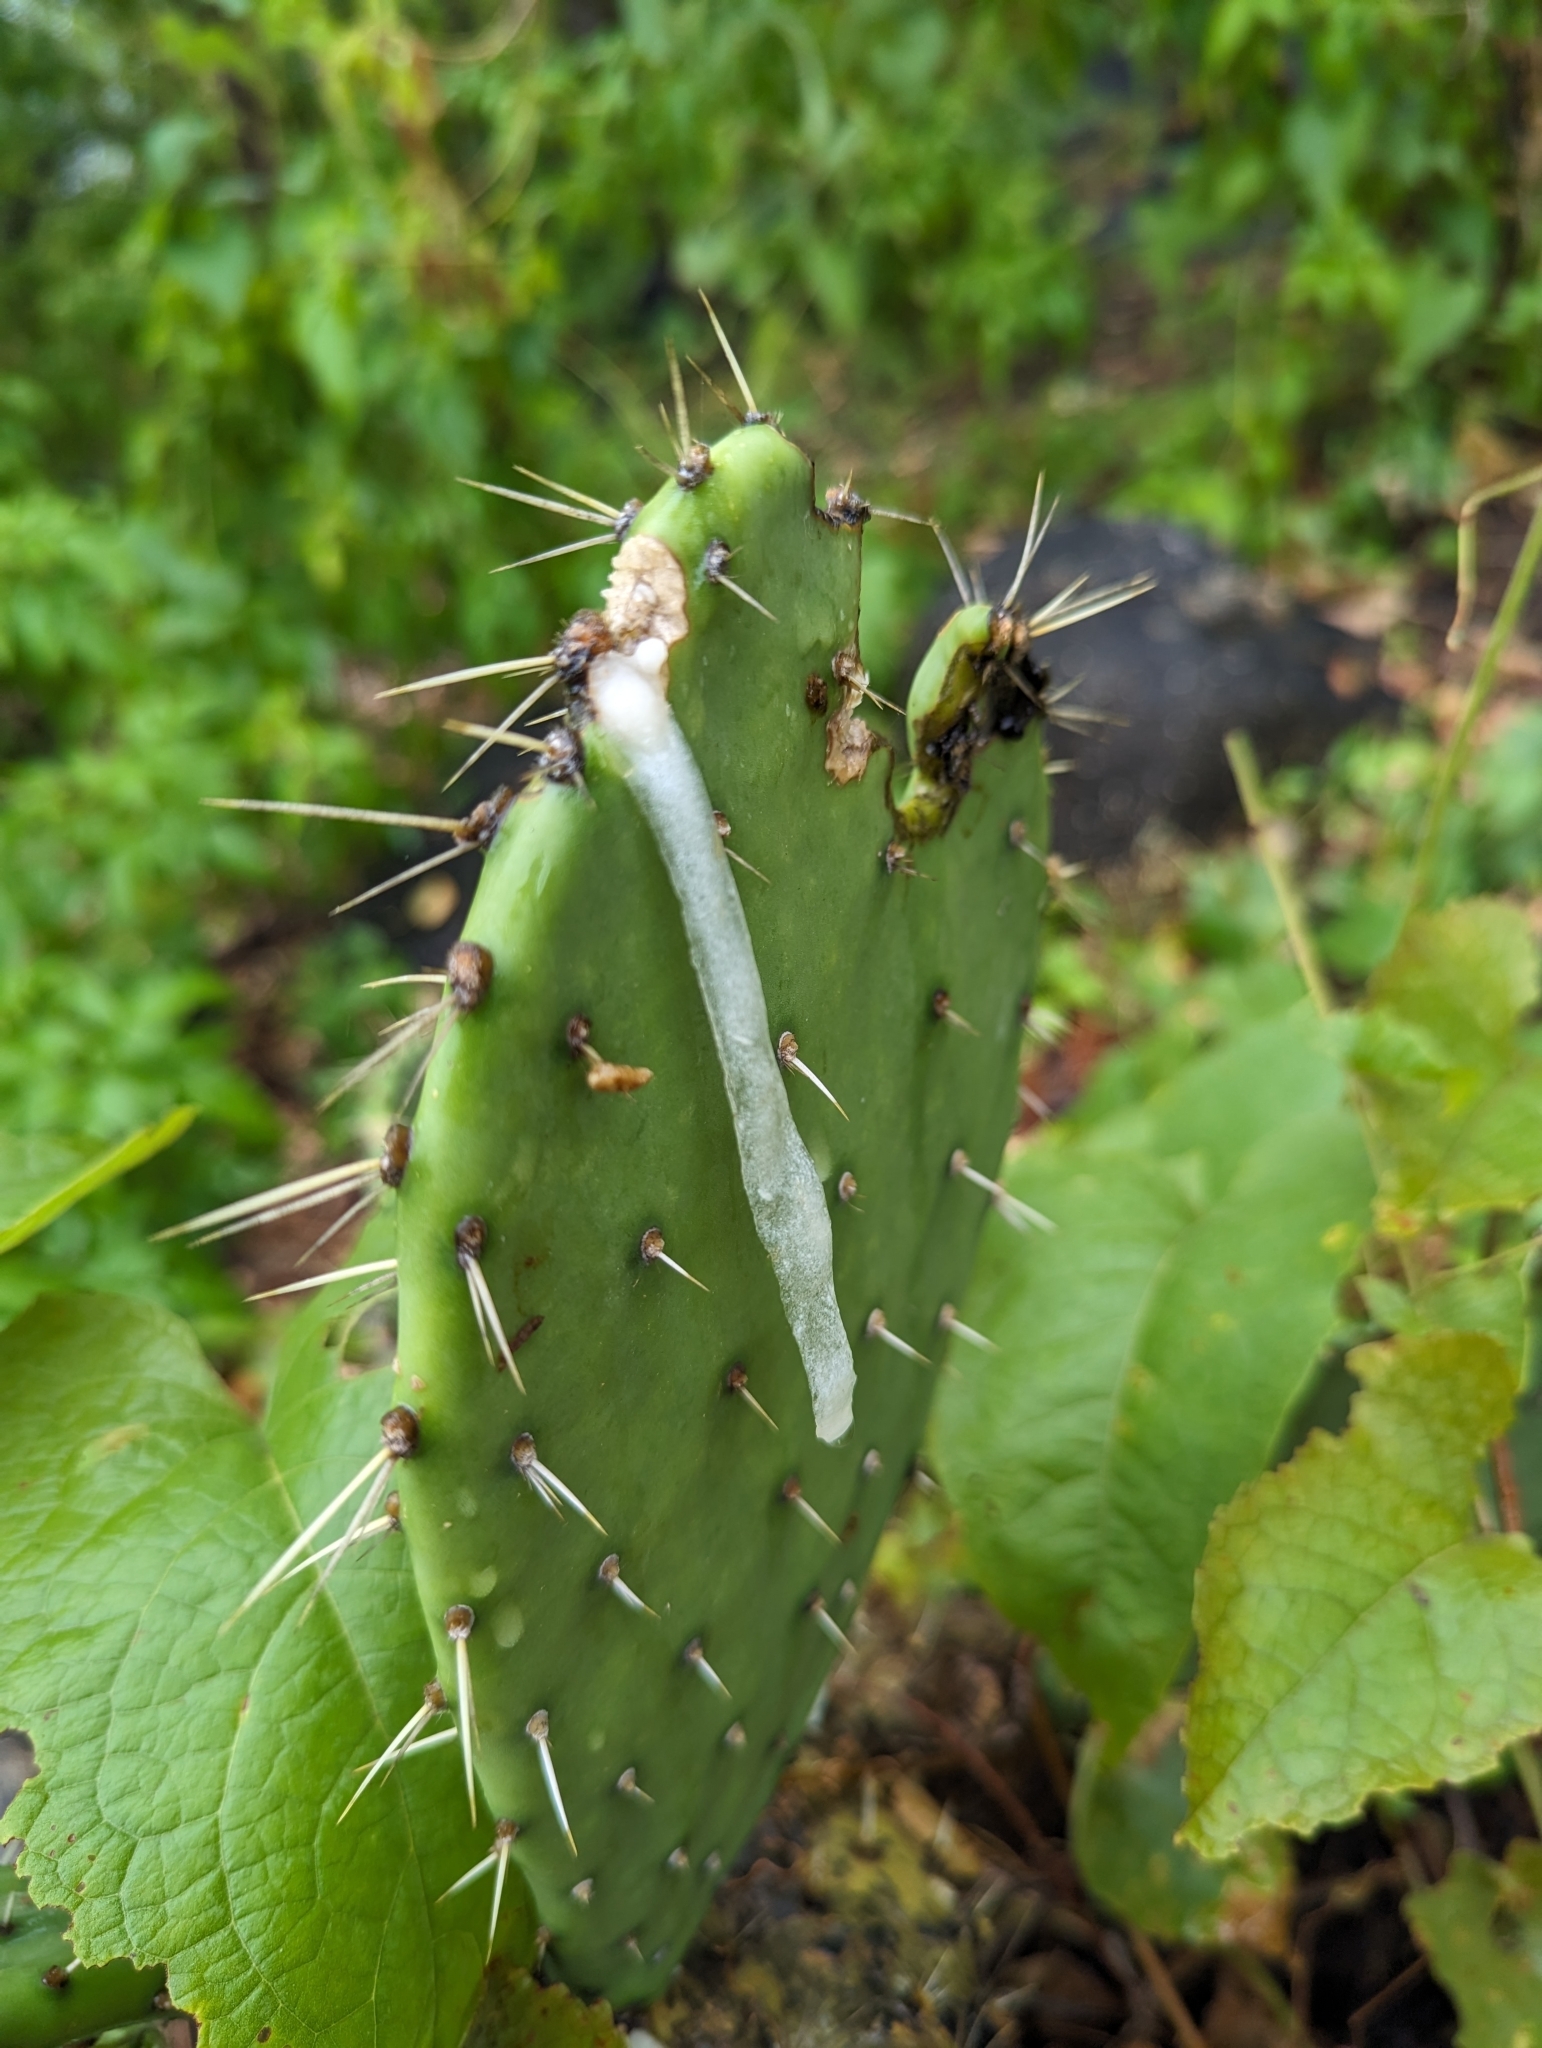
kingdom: Plantae
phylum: Tracheophyta
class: Magnoliopsida
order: Caryophyllales
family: Cactaceae
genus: Opuntia
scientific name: Opuntia sierralagunensis
